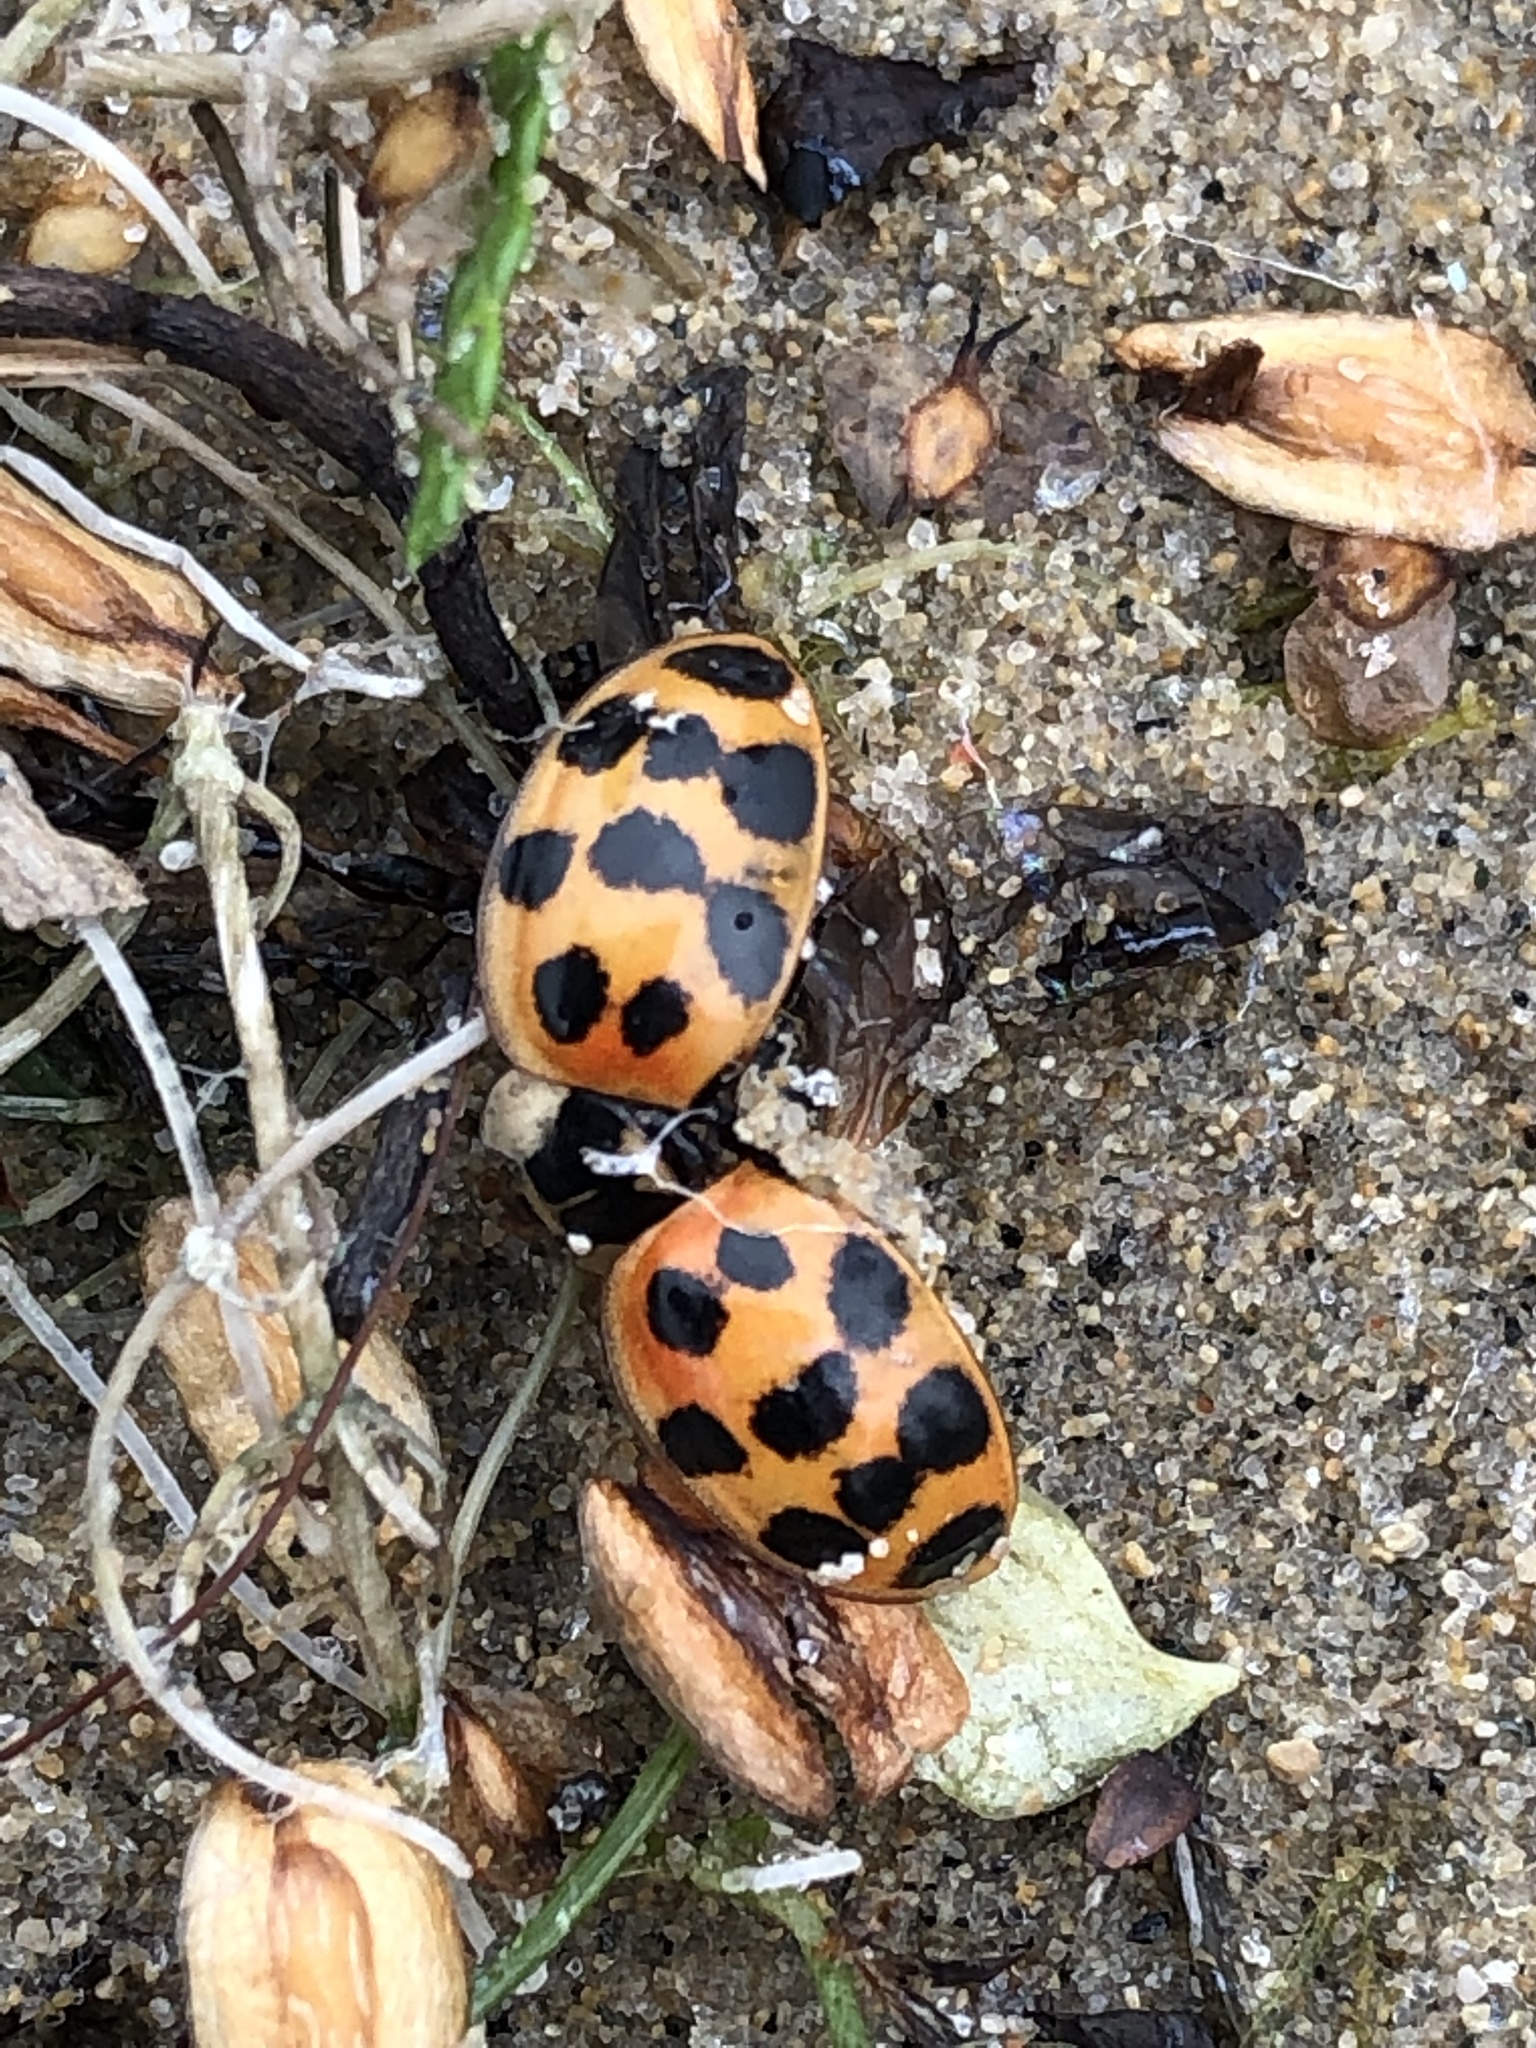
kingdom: Animalia
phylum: Arthropoda
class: Insecta
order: Coleoptera
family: Coccinellidae
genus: Harmonia
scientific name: Harmonia axyridis
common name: Harlequin ladybird
